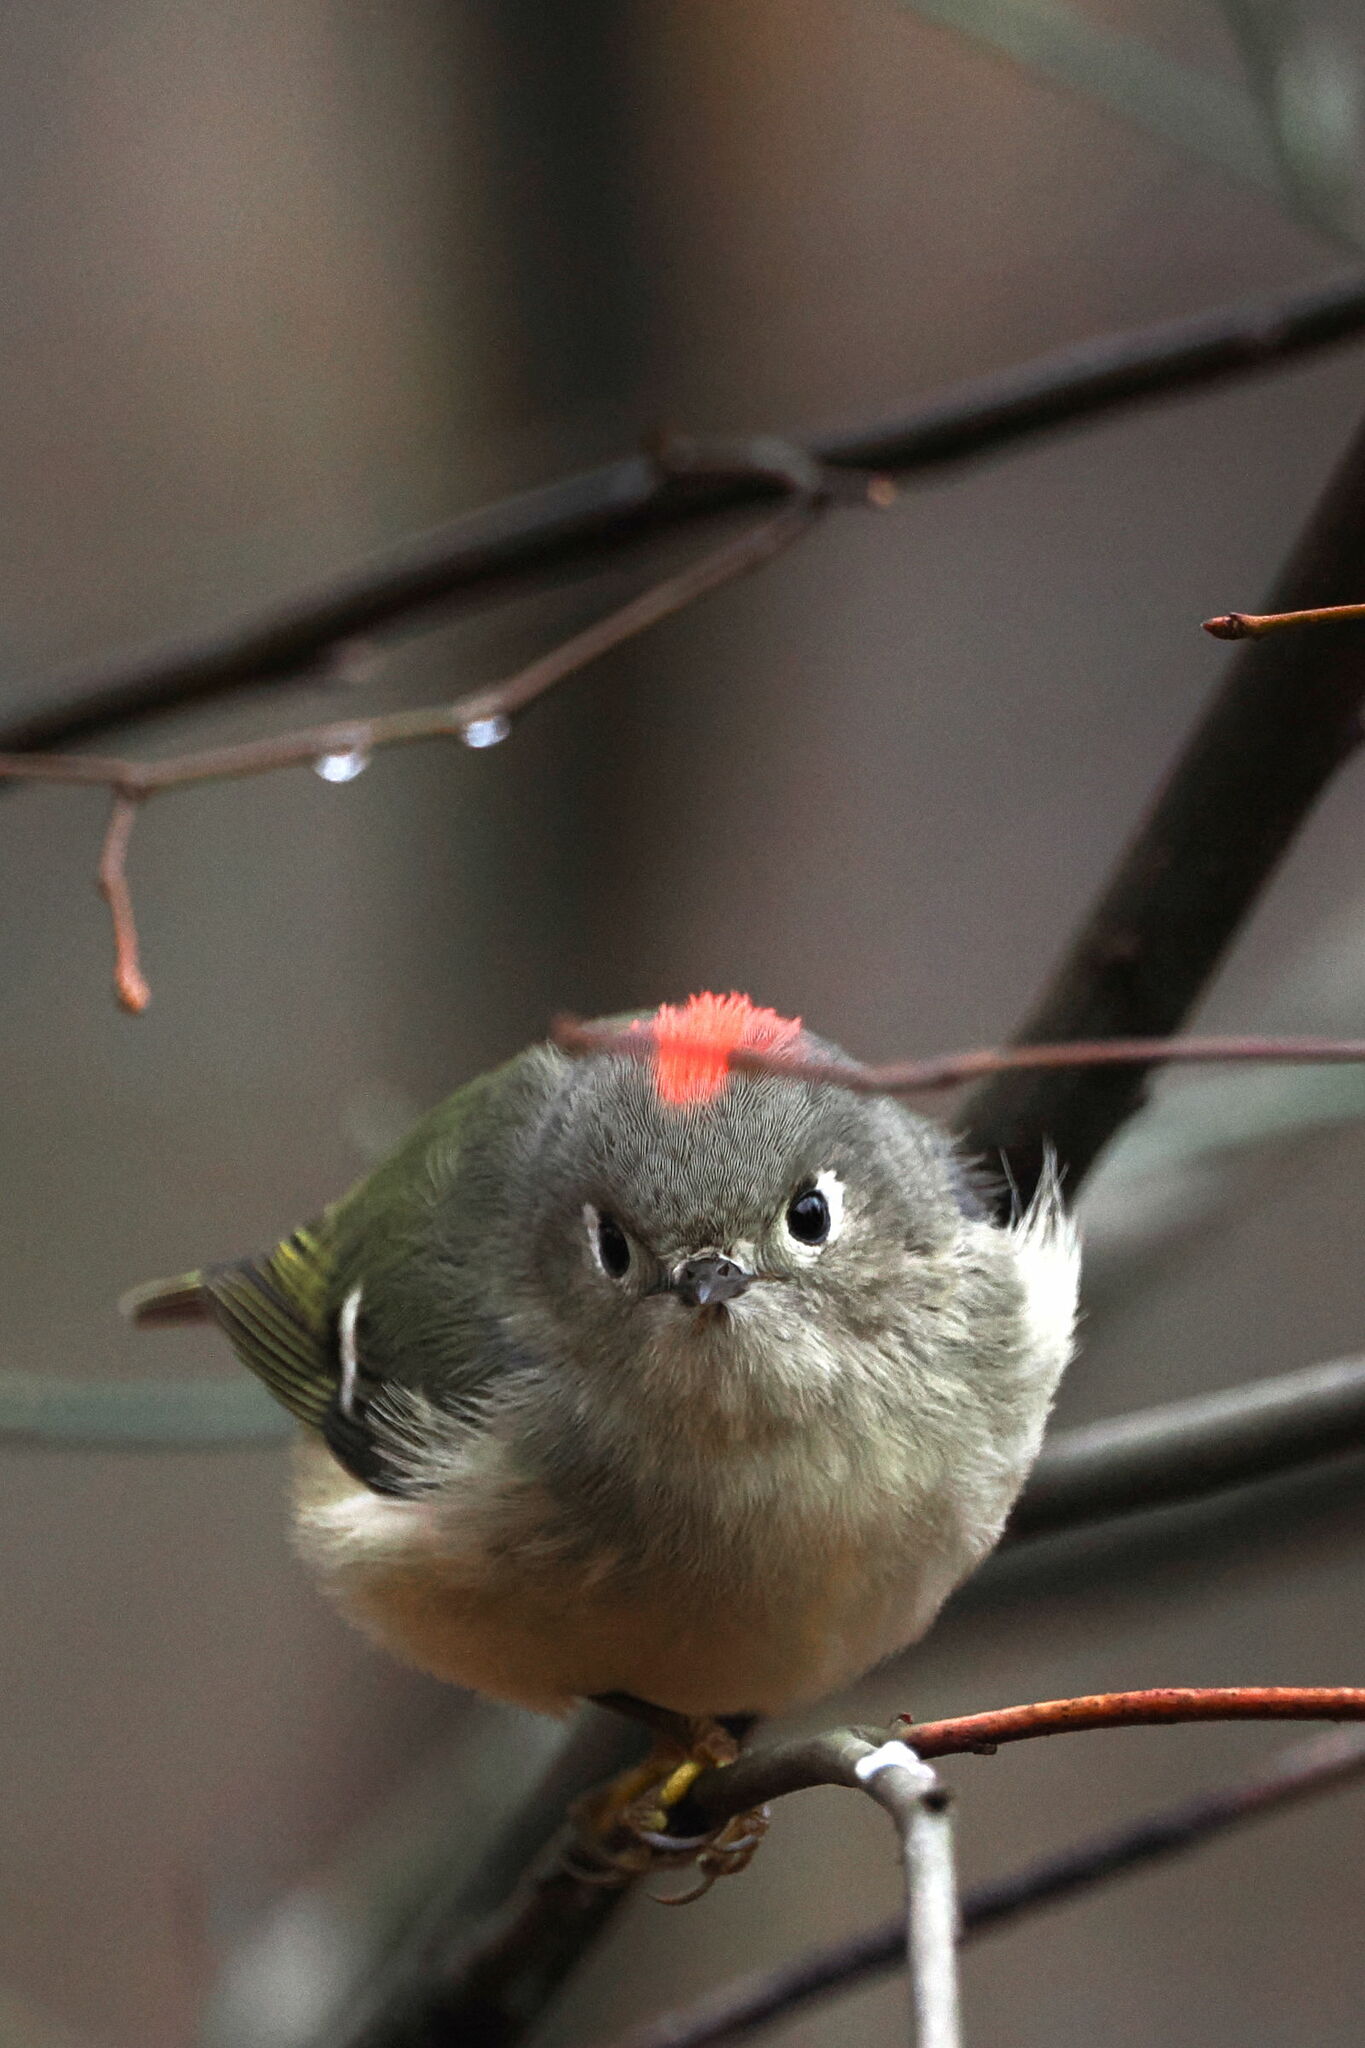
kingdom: Animalia
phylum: Chordata
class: Aves
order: Passeriformes
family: Regulidae
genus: Regulus
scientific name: Regulus calendula
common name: Ruby-crowned kinglet
